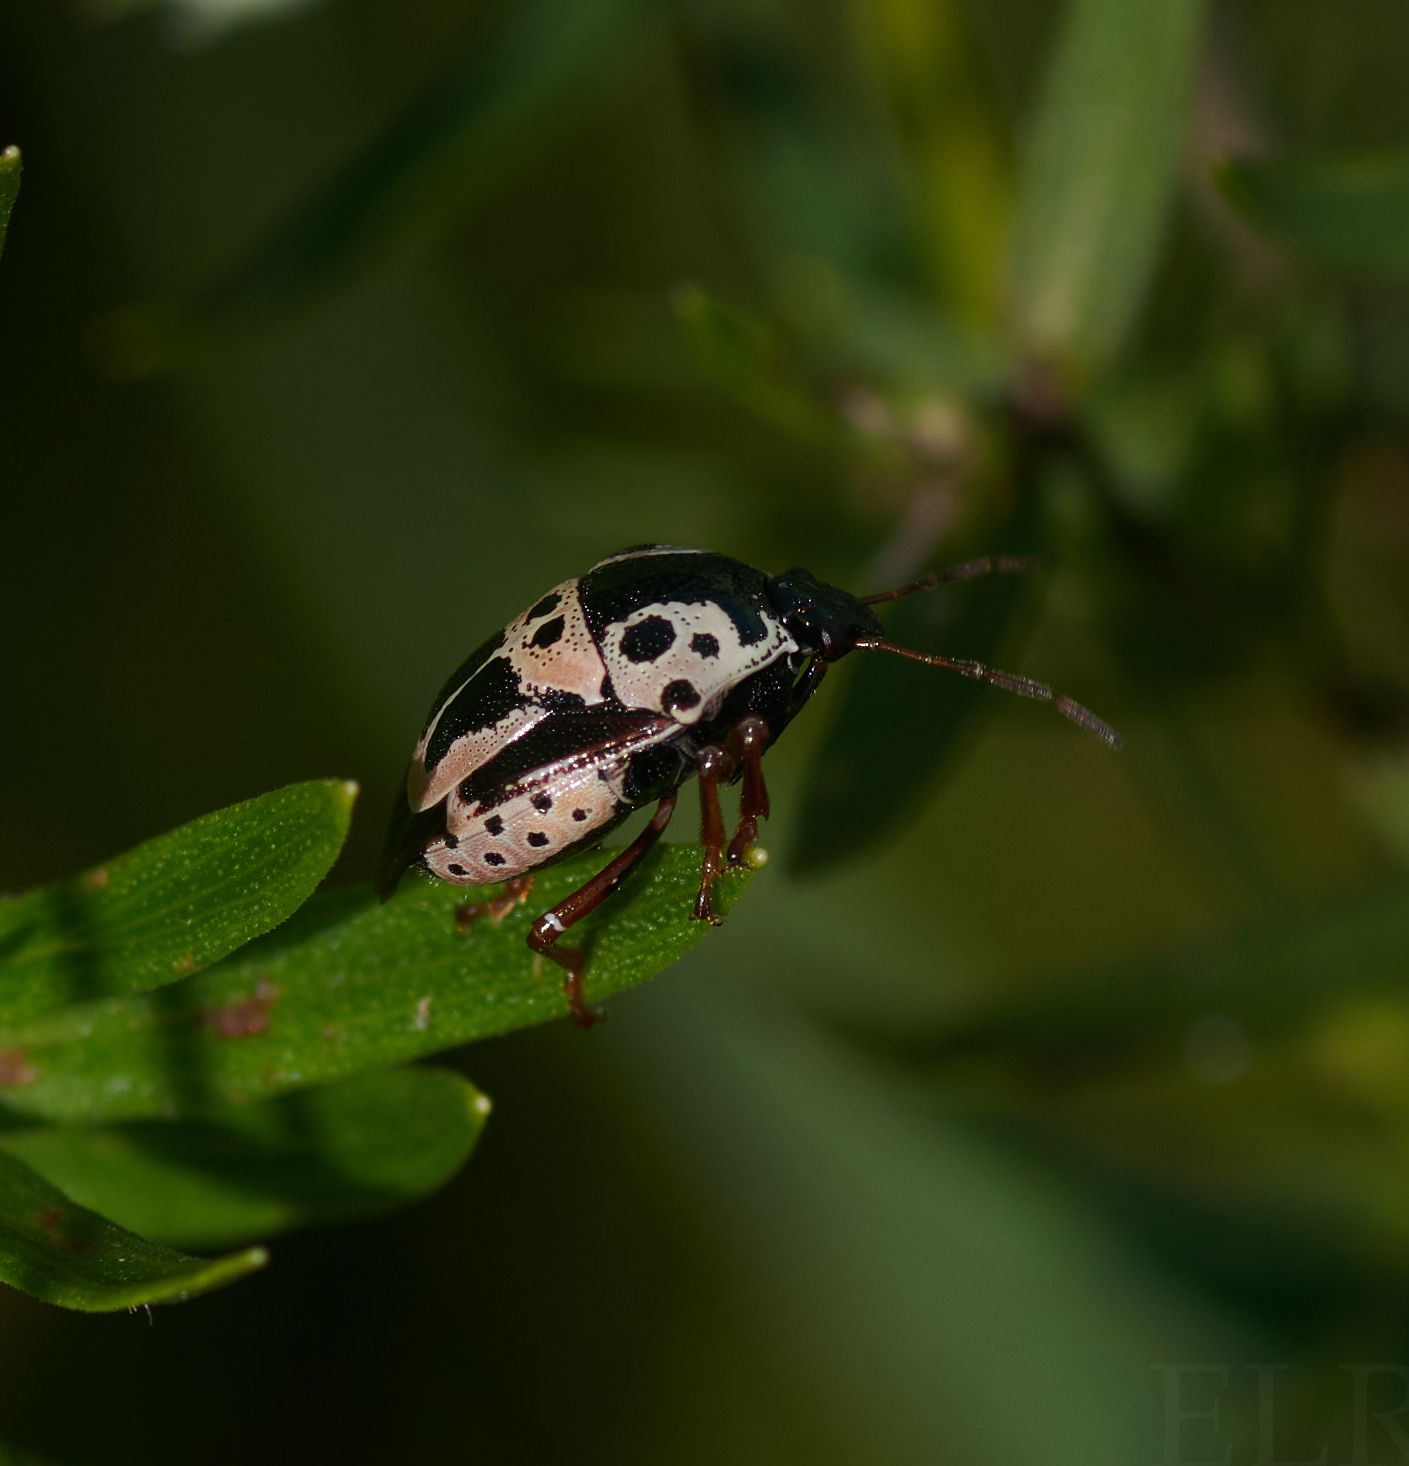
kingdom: Animalia
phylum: Arthropoda
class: Insecta
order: Hemiptera
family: Pentatomidae
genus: Stiretrus
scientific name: Stiretrus anchorago
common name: Anchor stink bug
